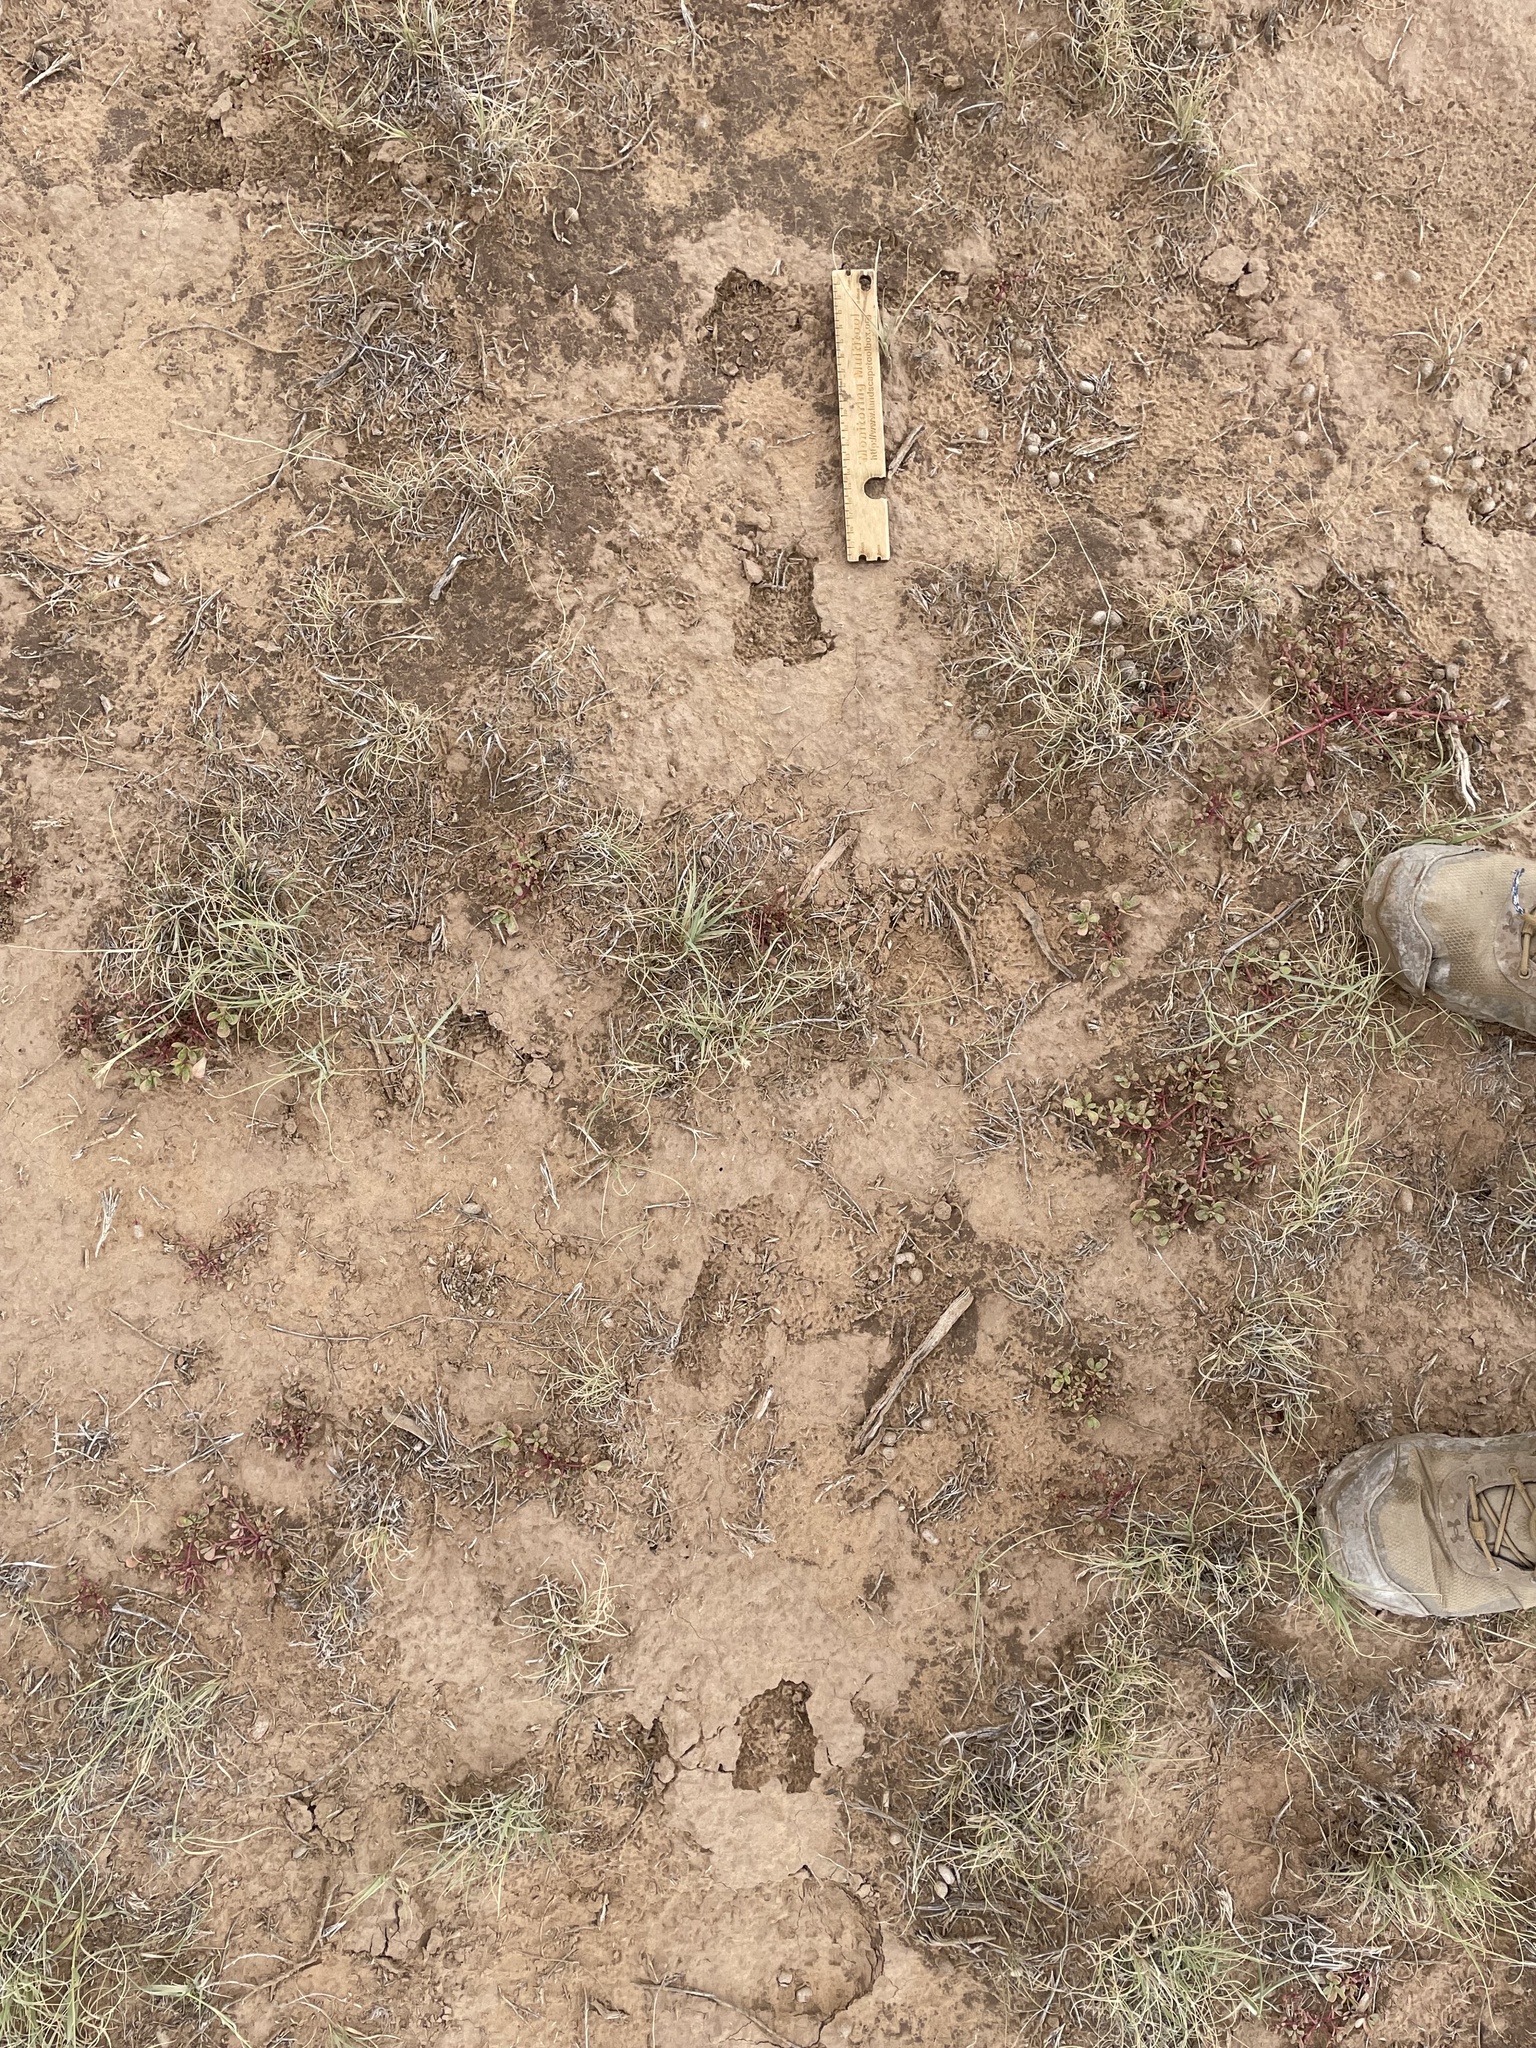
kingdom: Animalia
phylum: Chordata
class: Mammalia
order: Artiodactyla
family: Antilocapridae
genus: Antilocapra
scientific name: Antilocapra americana
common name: Pronghorn
